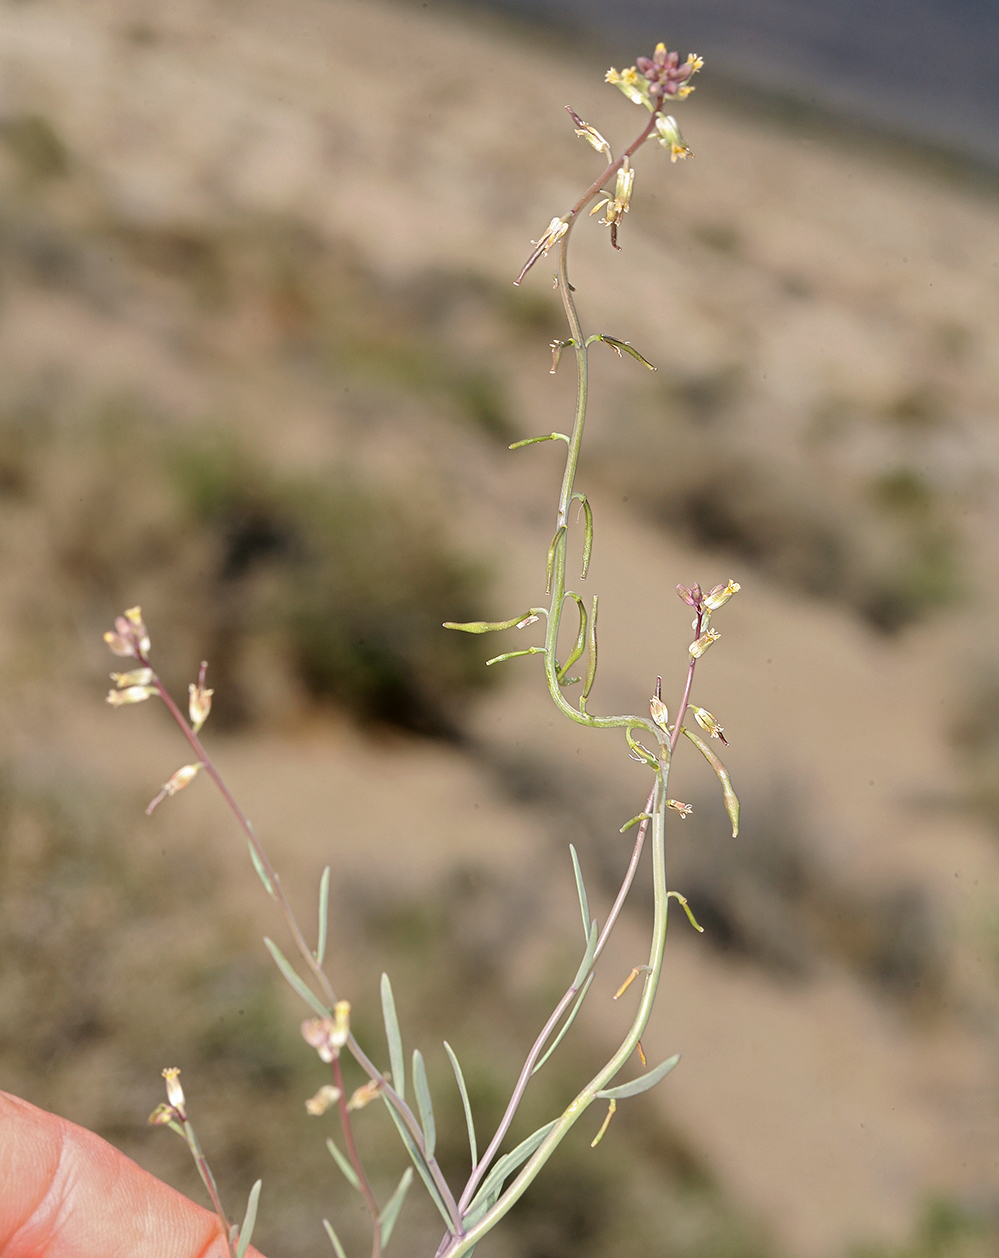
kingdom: Plantae
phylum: Tracheophyta
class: Magnoliopsida
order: Brassicales
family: Brassicaceae
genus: Streptanthus
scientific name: Streptanthus longirostris
